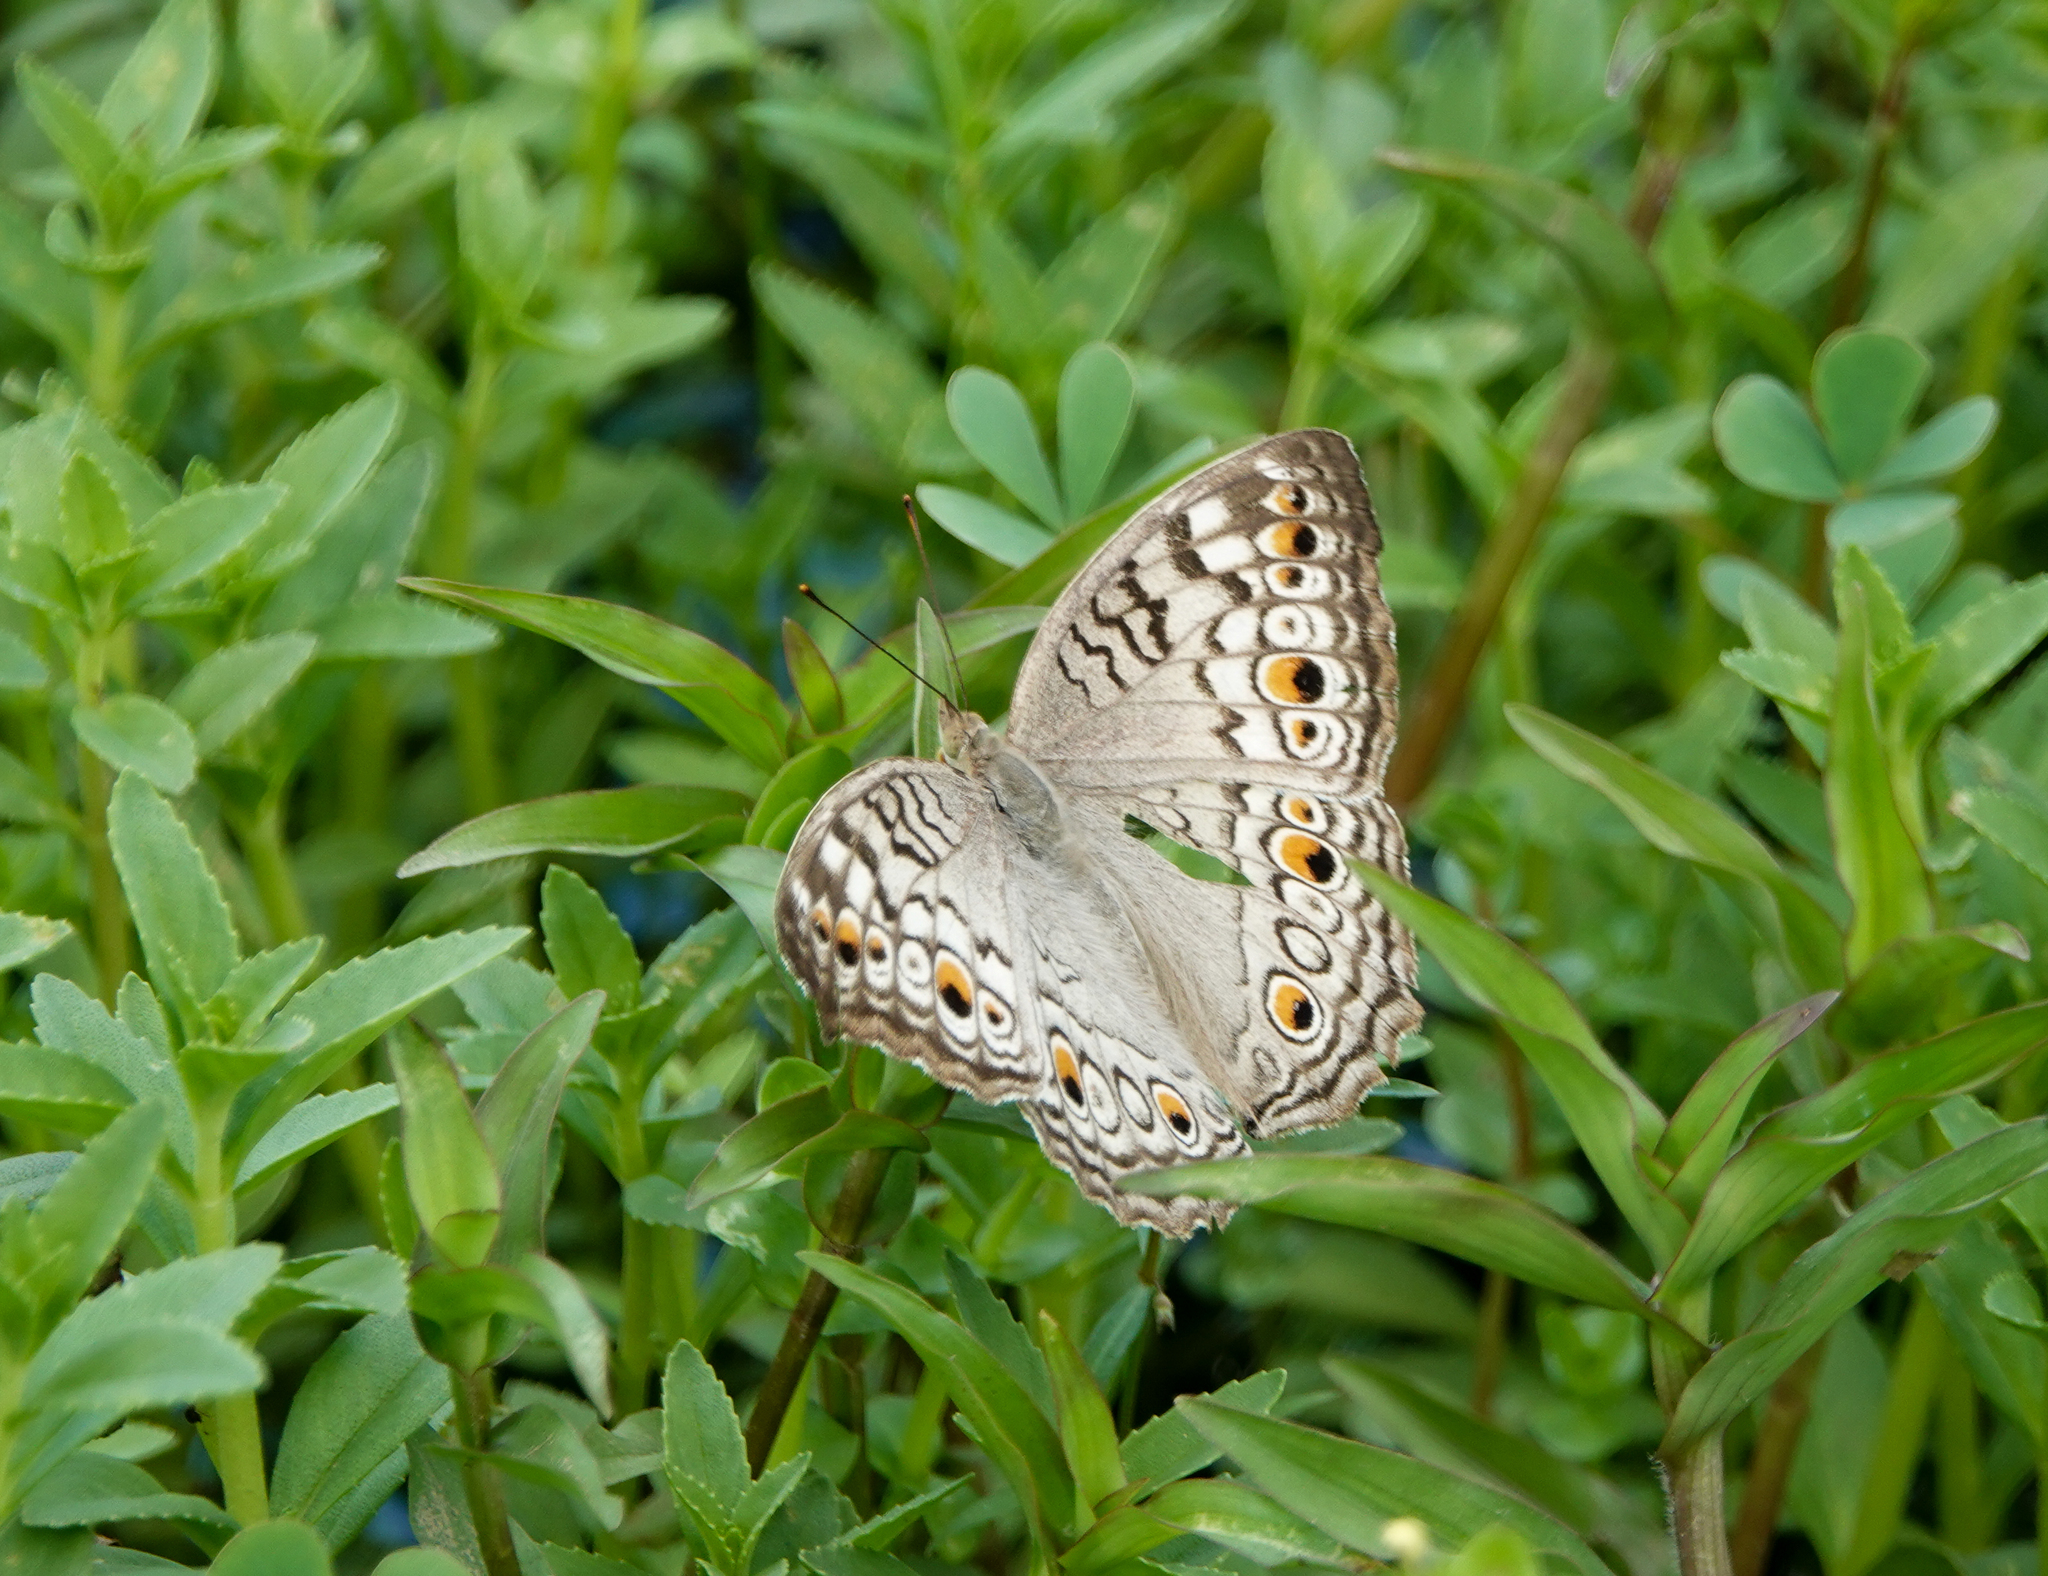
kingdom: Animalia
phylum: Arthropoda
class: Insecta
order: Lepidoptera
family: Nymphalidae
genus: Junonia
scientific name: Junonia atlites
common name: Grey pansy
